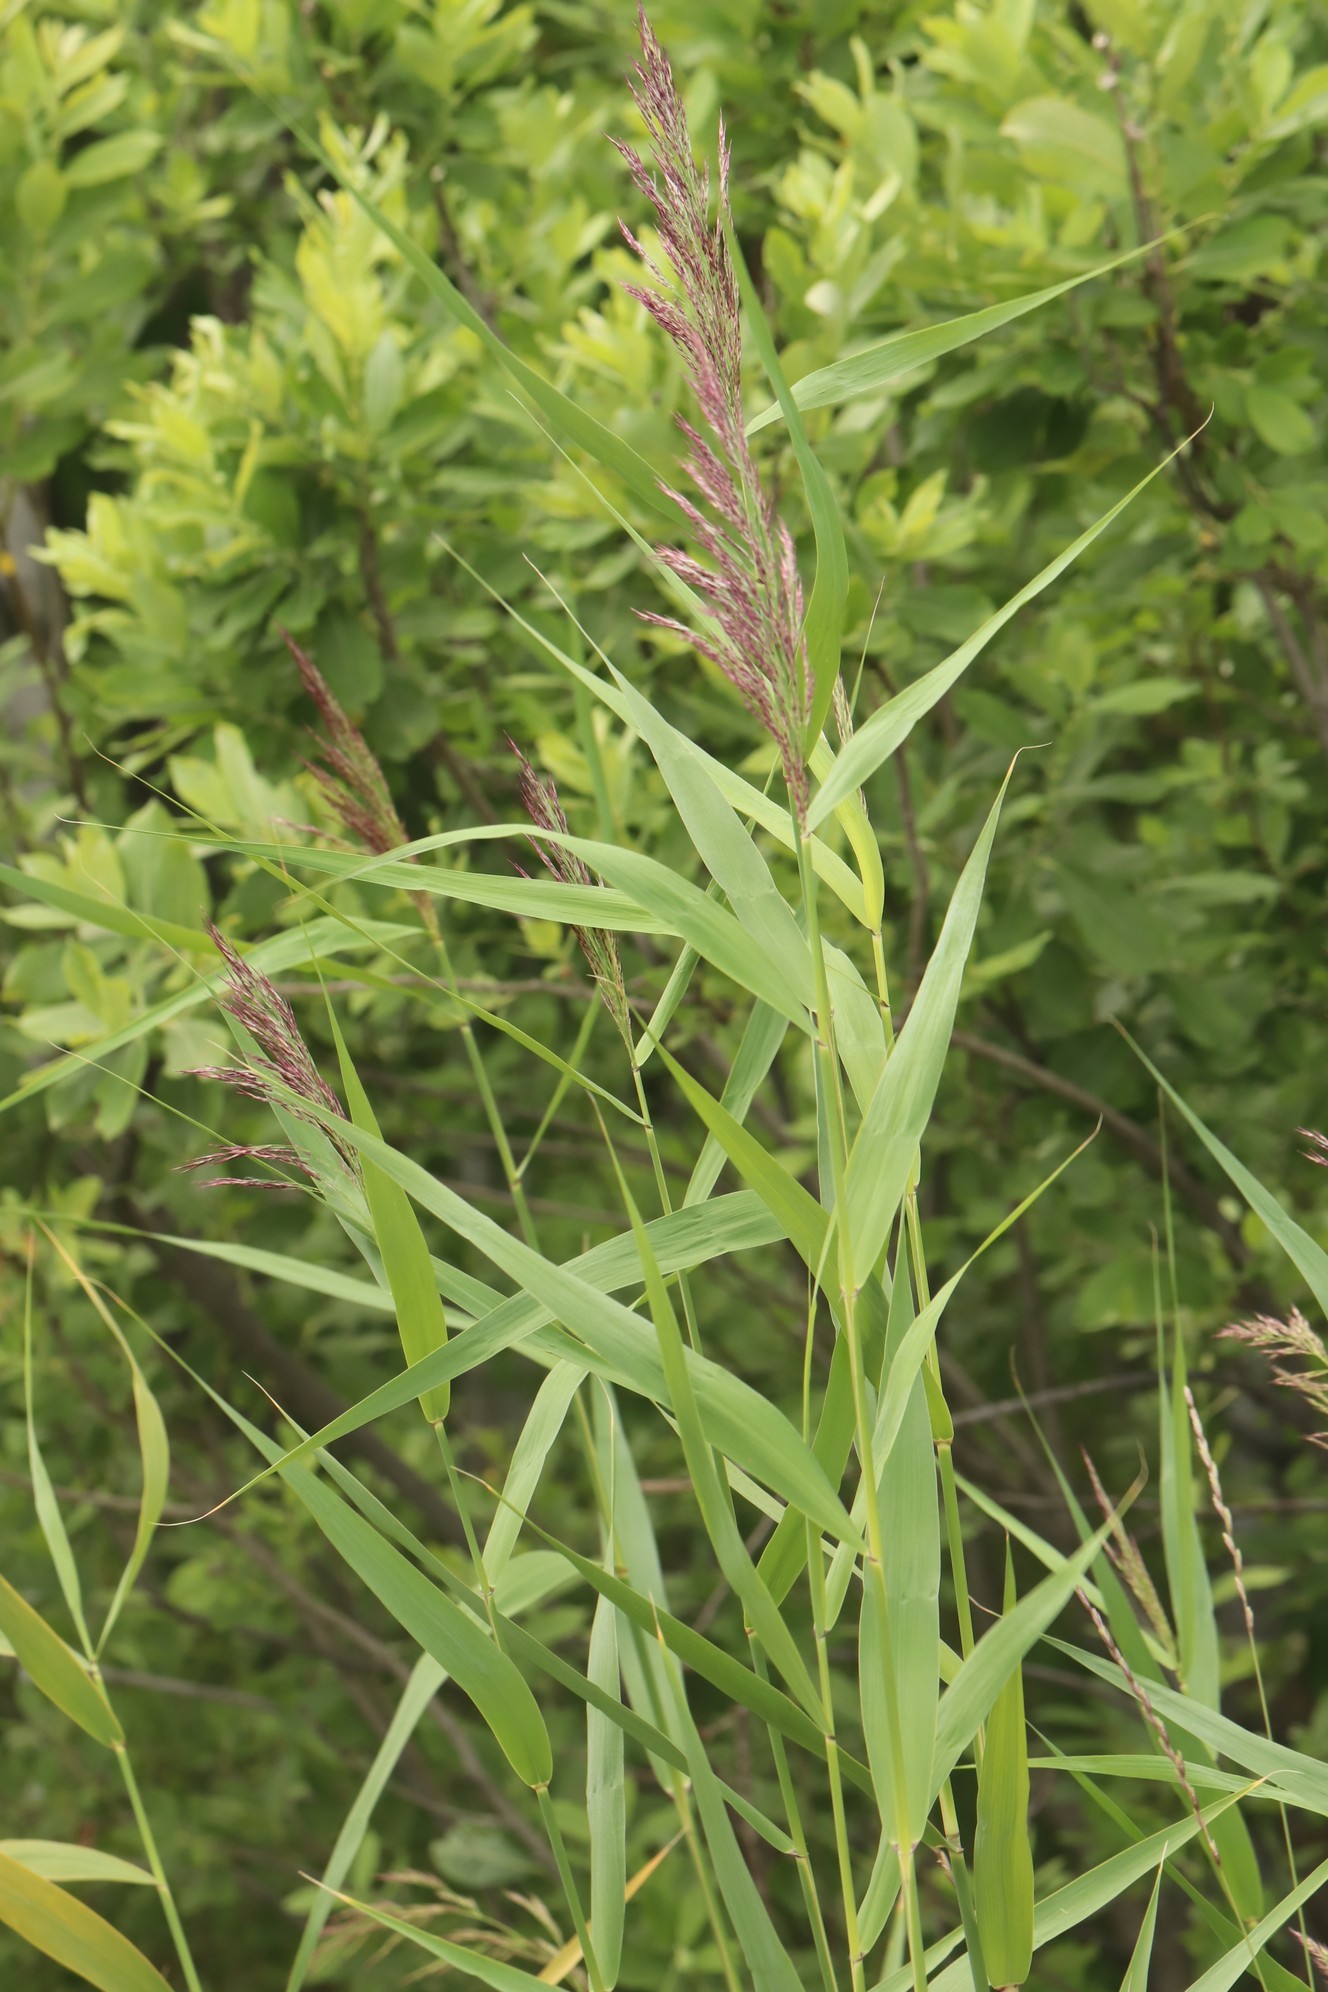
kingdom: Plantae
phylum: Tracheophyta
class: Liliopsida
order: Poales
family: Poaceae
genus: Phragmites
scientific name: Phragmites australis
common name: Common reed
